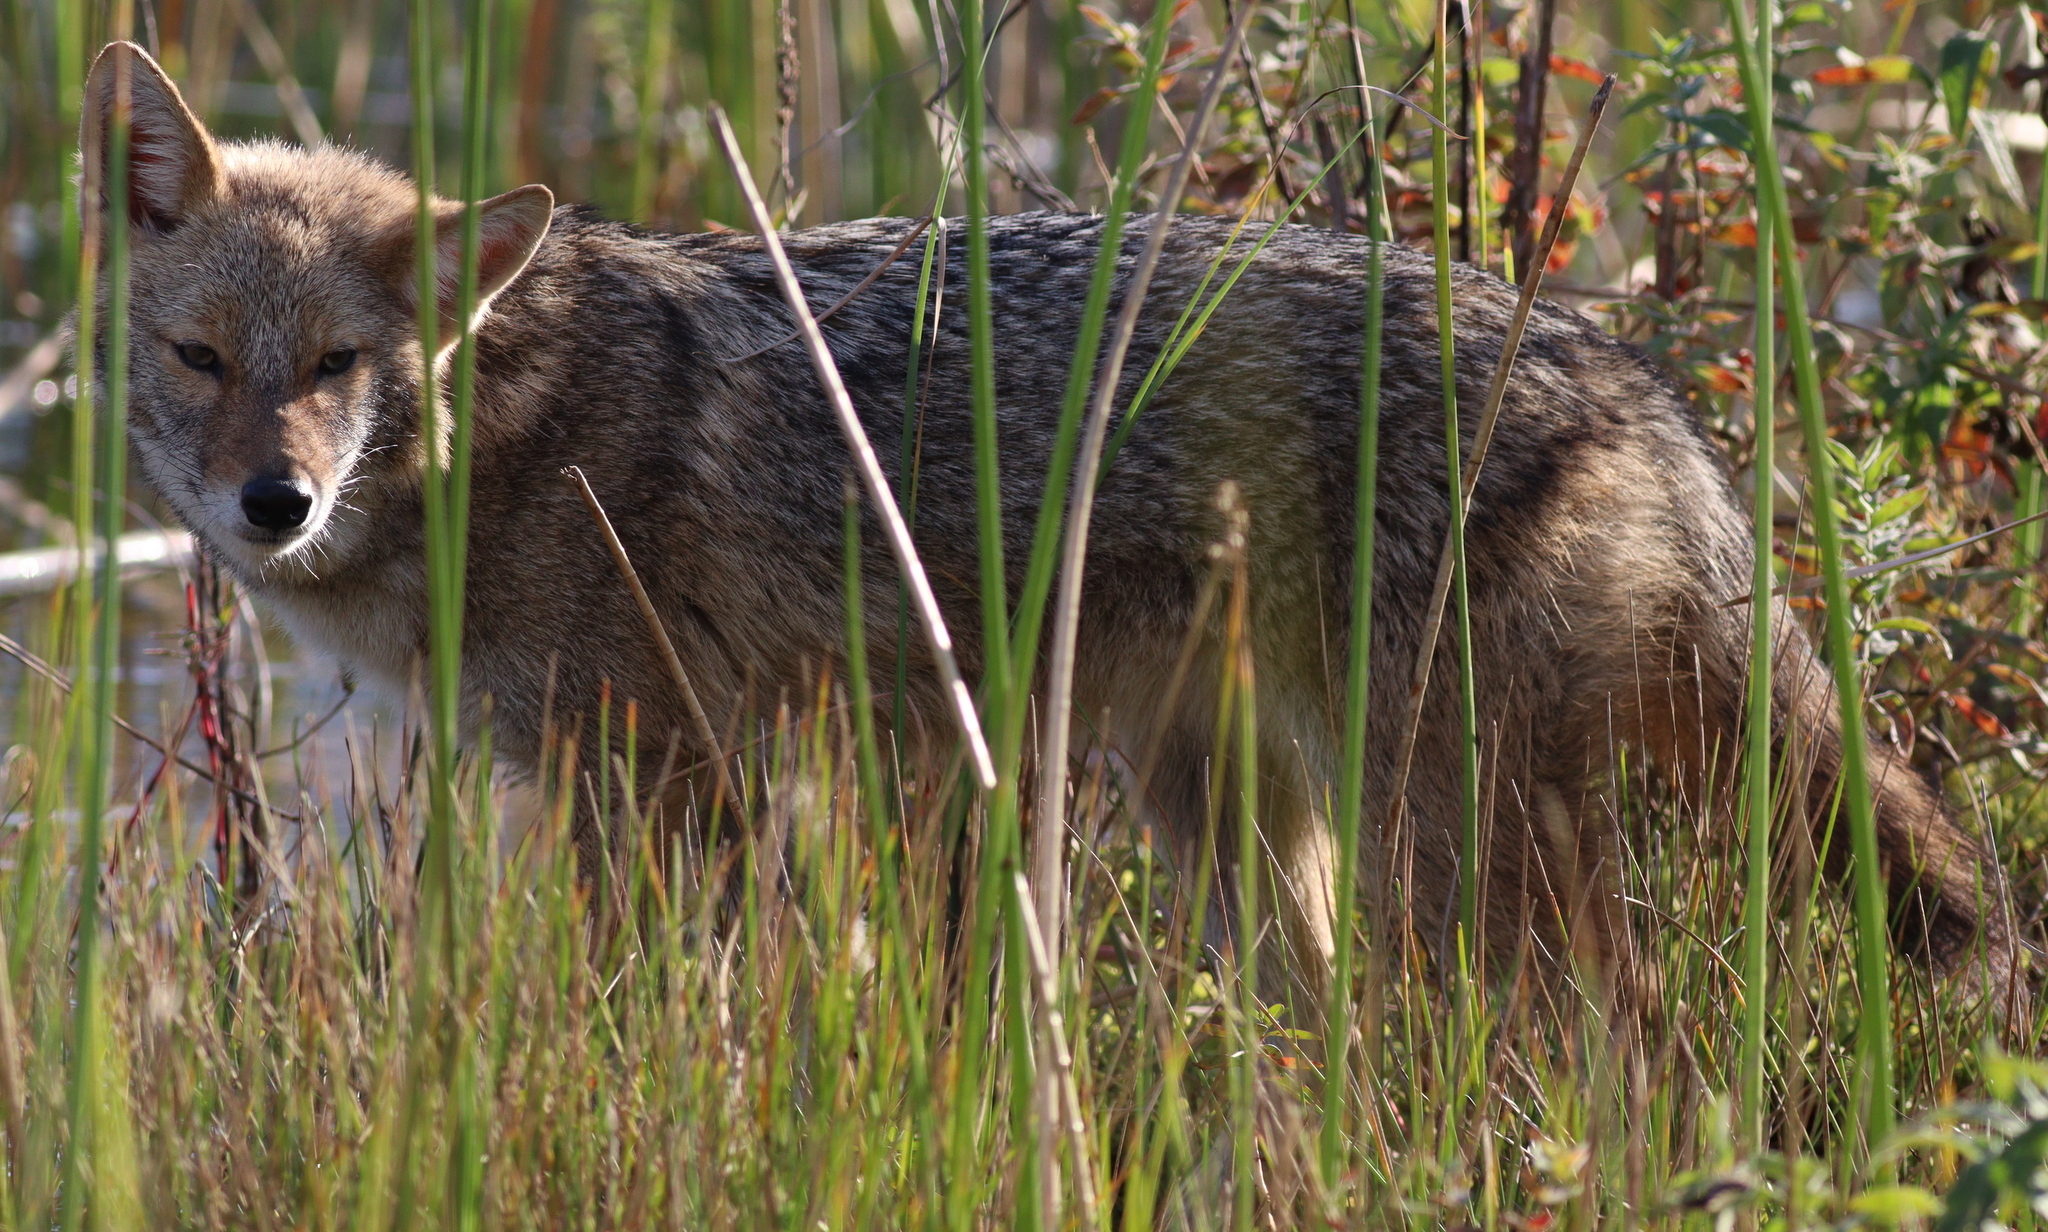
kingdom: Animalia
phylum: Chordata
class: Mammalia
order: Carnivora
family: Canidae
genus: Canis
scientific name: Canis aureus
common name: Golden jackal
